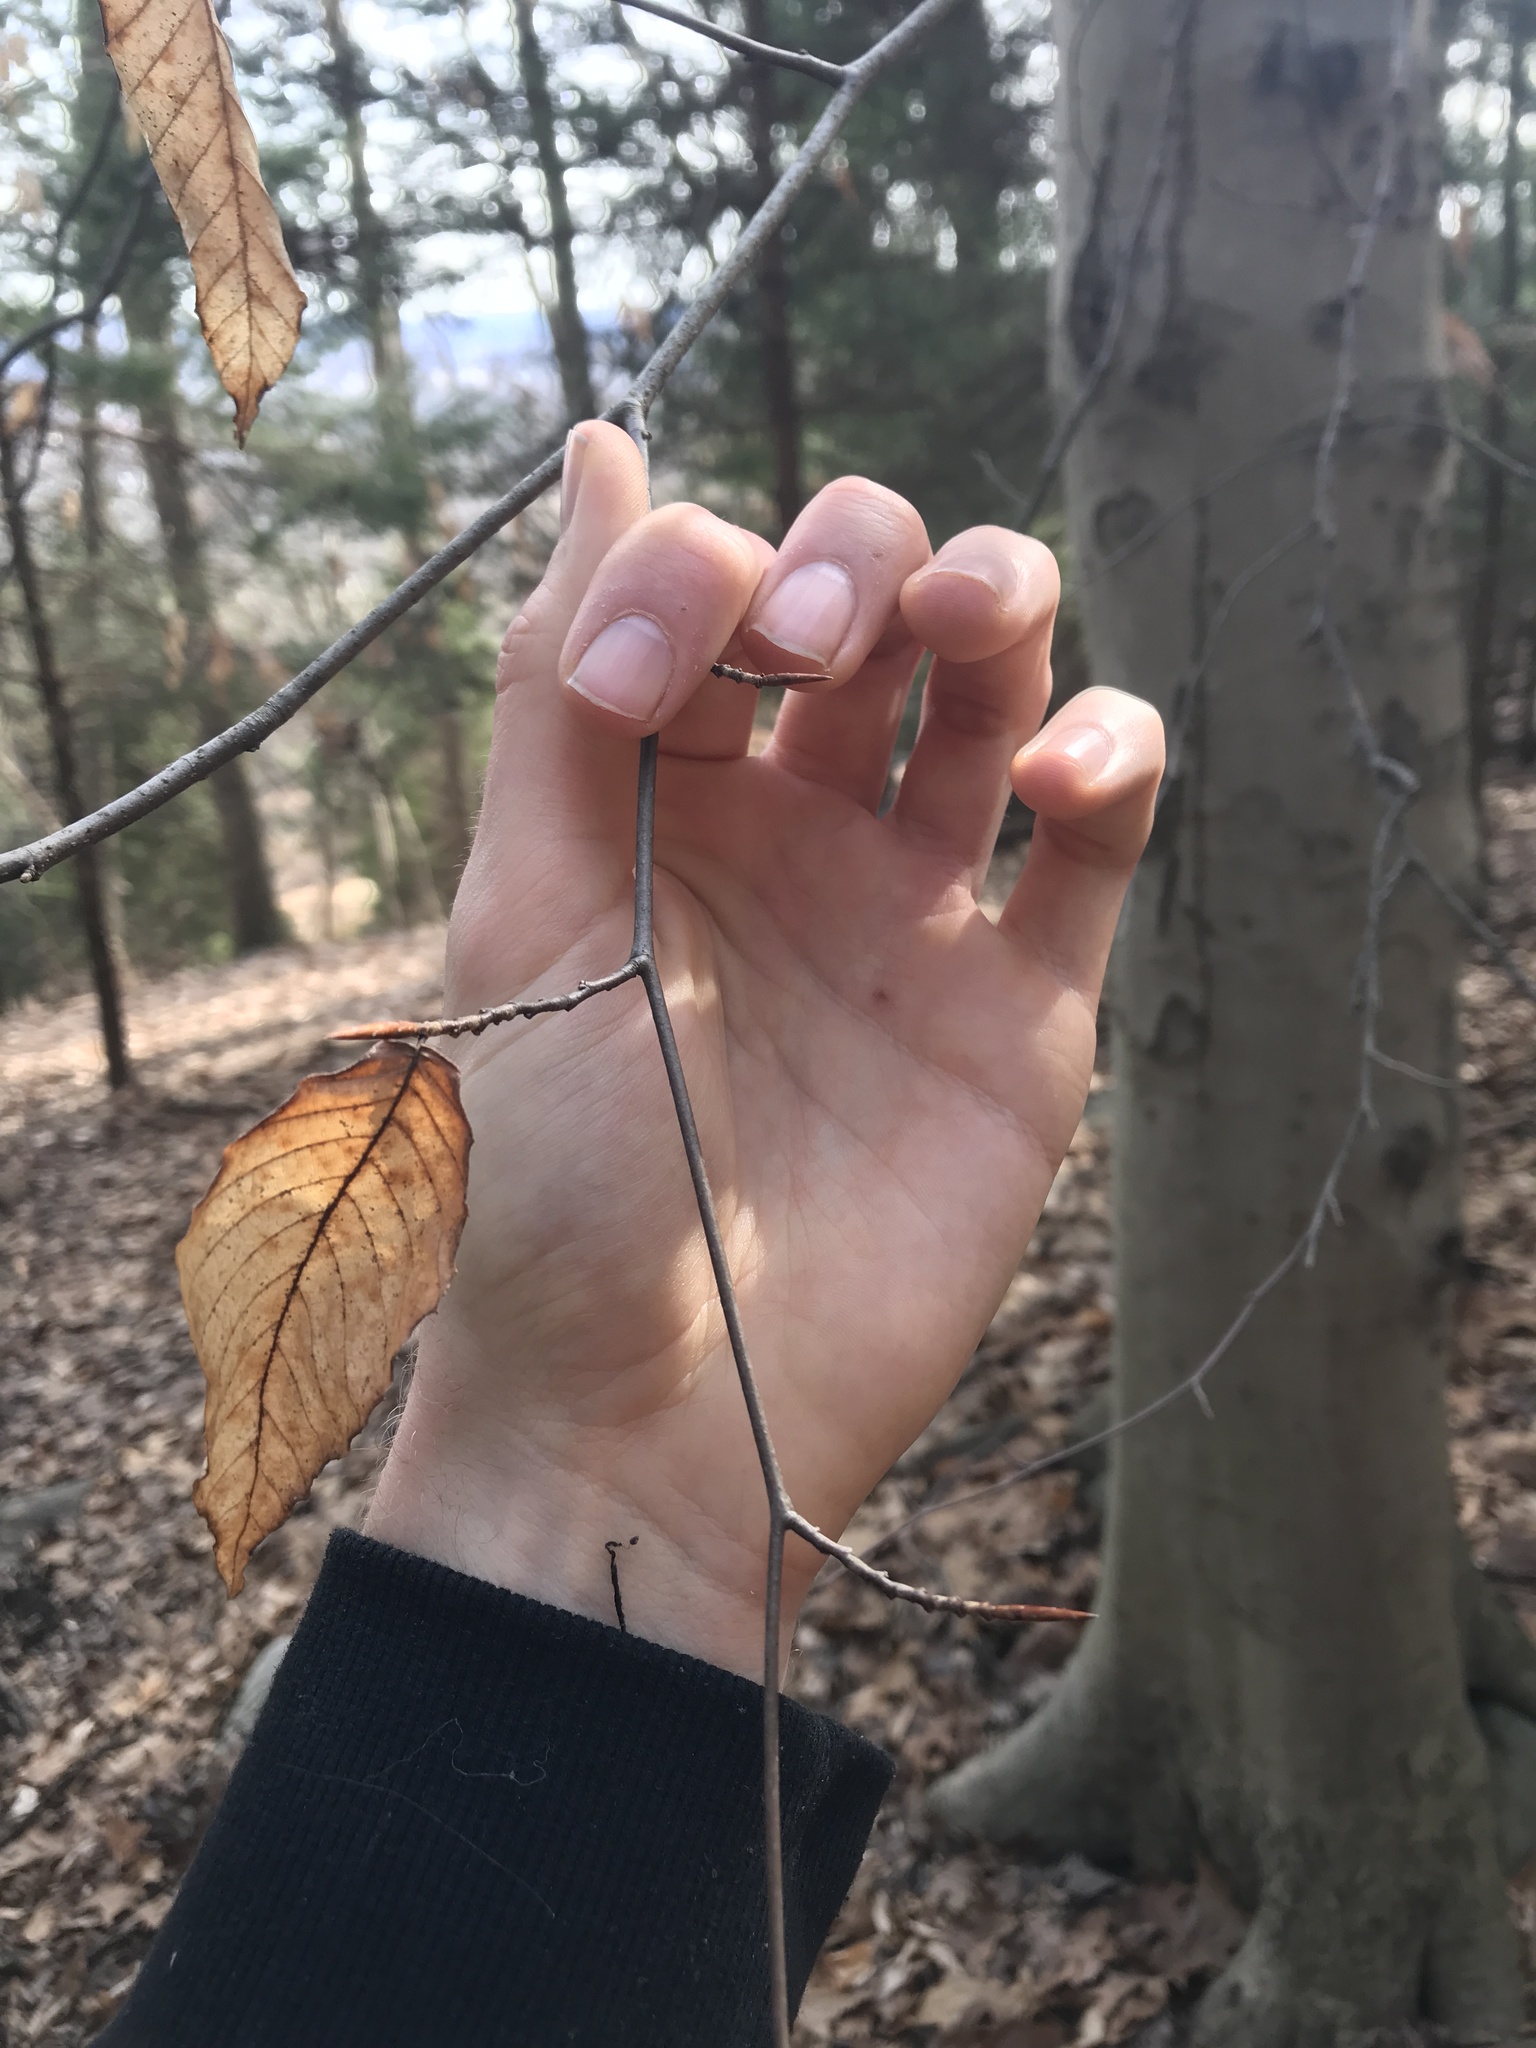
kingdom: Plantae
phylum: Tracheophyta
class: Magnoliopsida
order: Fagales
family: Fagaceae
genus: Fagus
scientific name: Fagus grandifolia
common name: American beech
